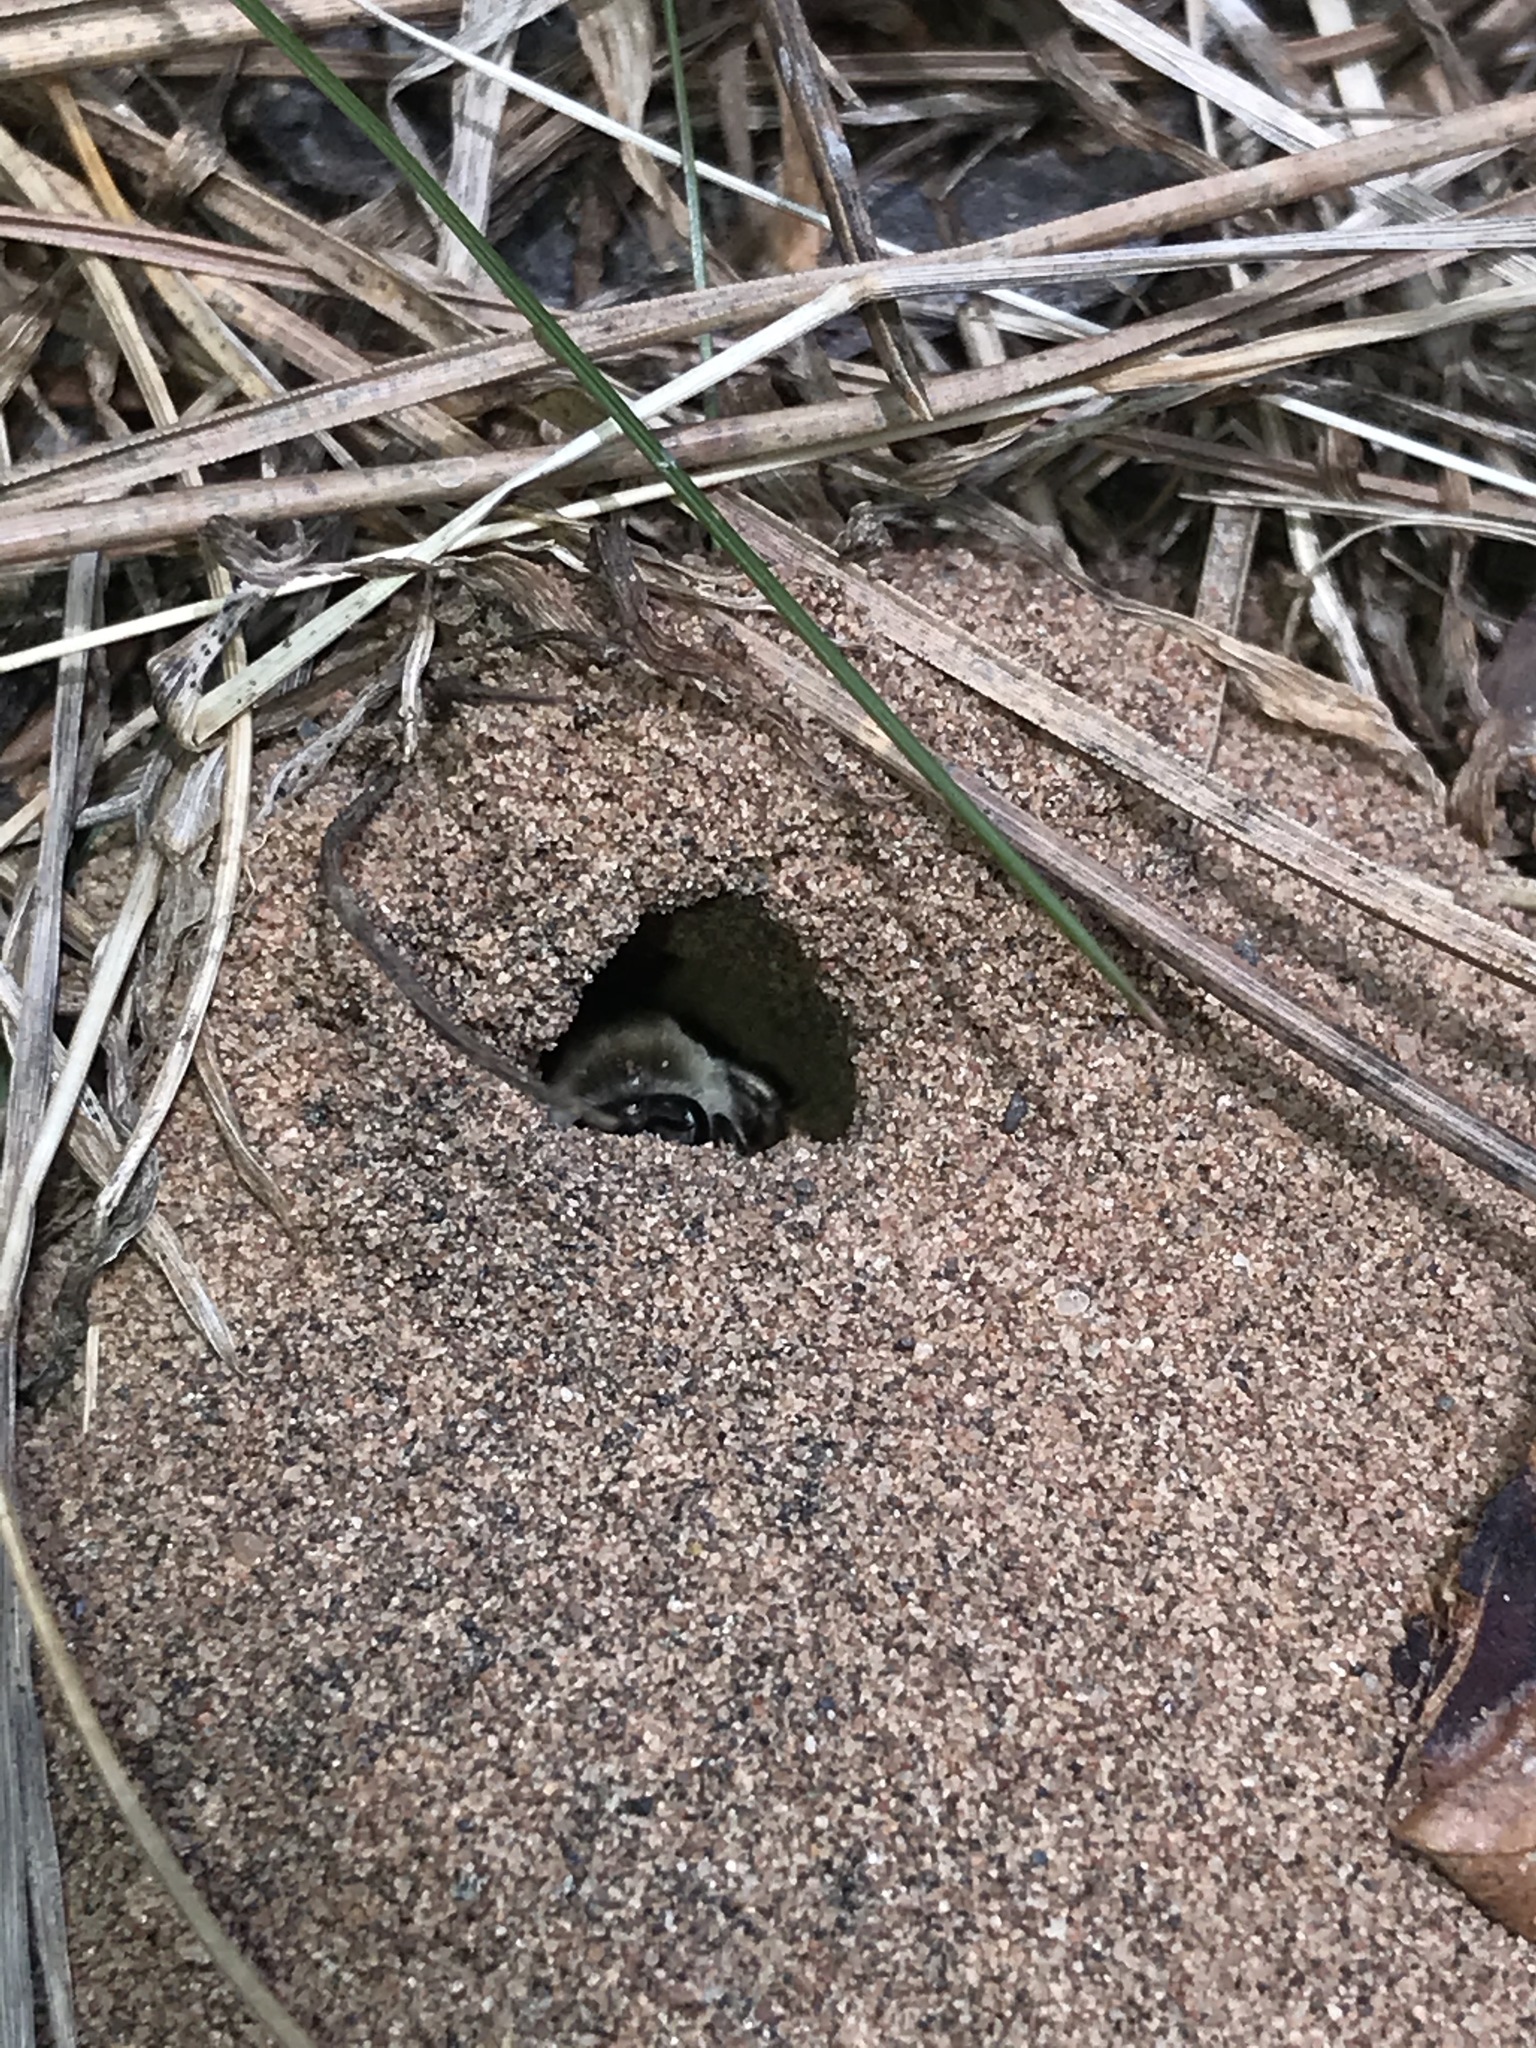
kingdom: Animalia
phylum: Arthropoda
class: Insecta
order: Hymenoptera
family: Colletidae
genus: Colletes
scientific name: Colletes inaequalis
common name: Unequal cellophane bee
